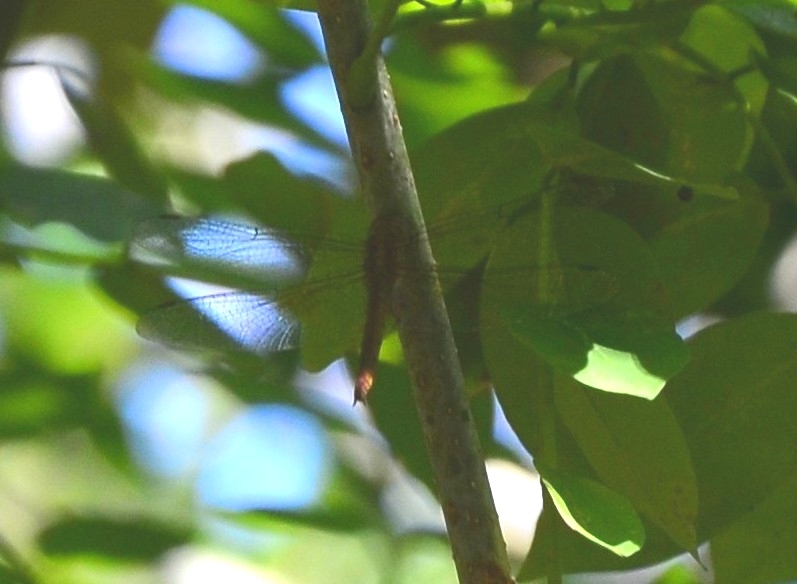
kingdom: Animalia
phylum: Arthropoda
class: Insecta
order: Odonata
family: Libellulidae
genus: Tholymis
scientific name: Tholymis tillarga
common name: Coral-tailed cloud wing
